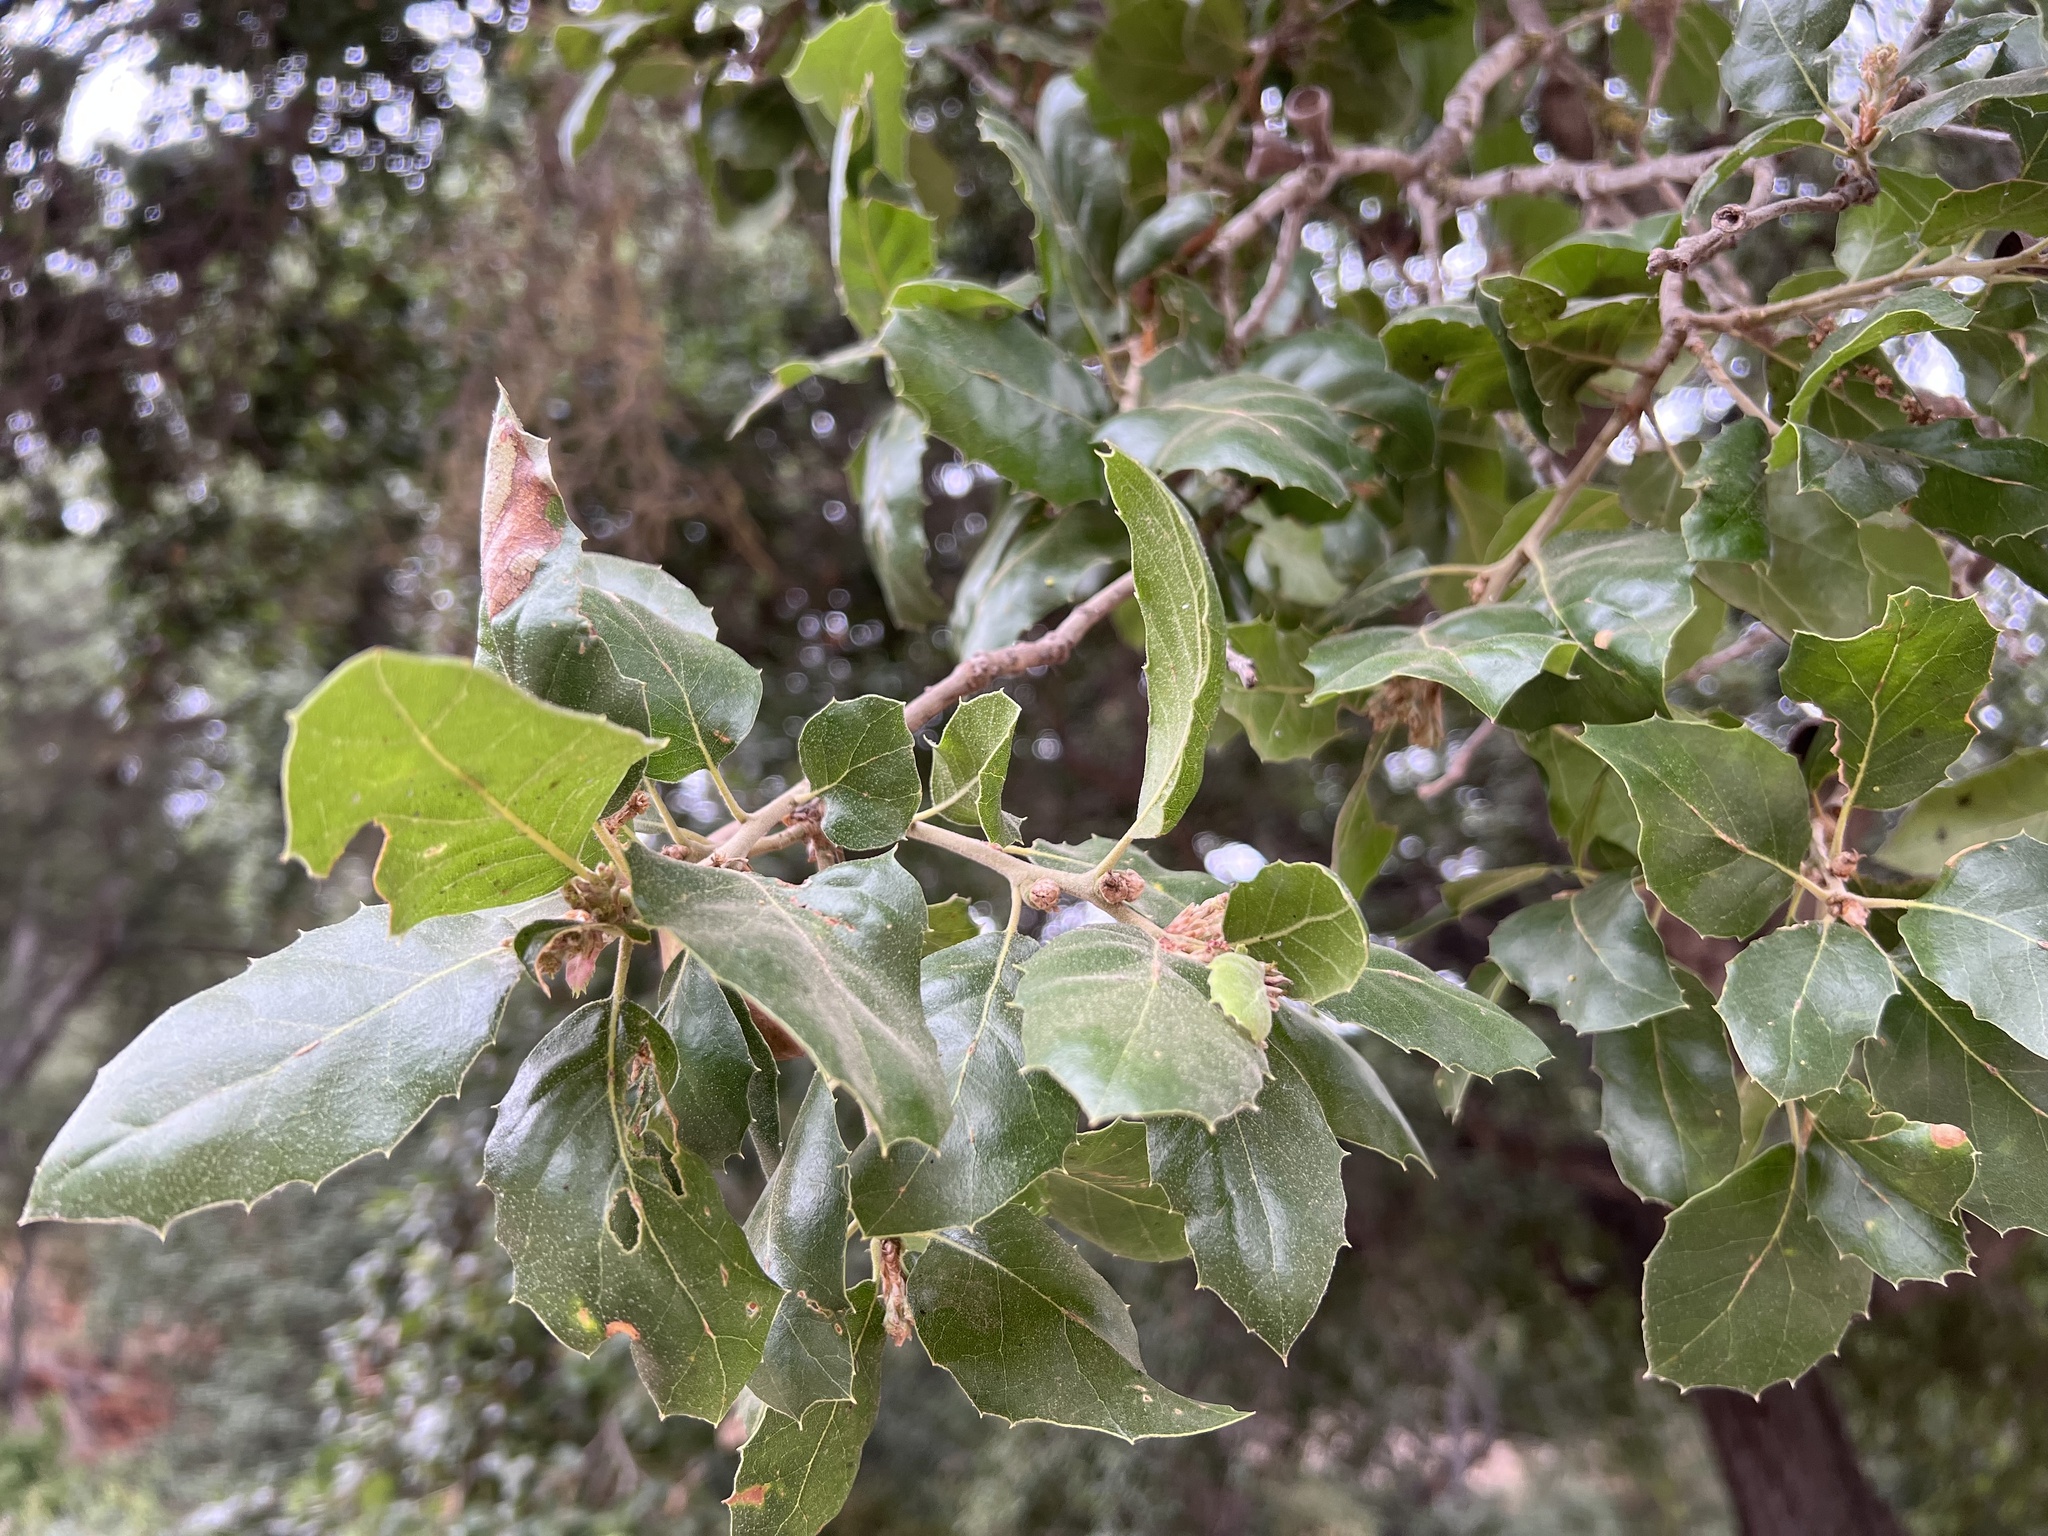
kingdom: Plantae
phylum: Tracheophyta
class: Magnoliopsida
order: Fagales
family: Fagaceae
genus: Quercus
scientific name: Quercus agrifolia
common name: California live oak
